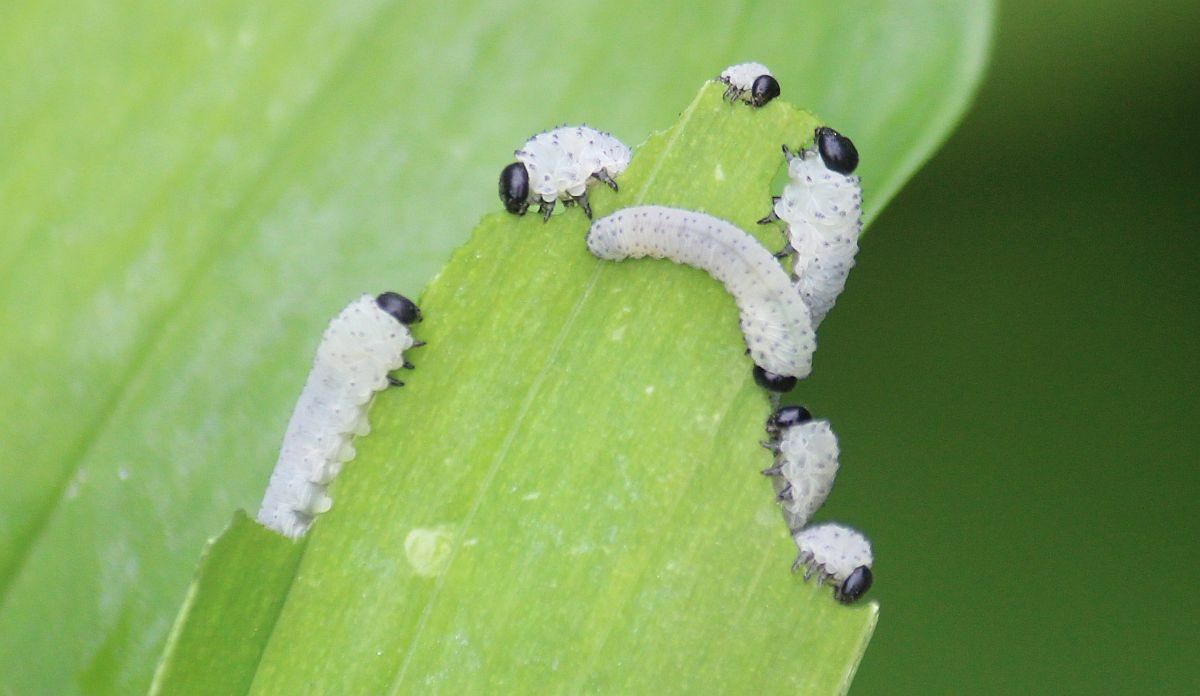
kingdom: Animalia
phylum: Arthropoda
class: Insecta
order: Hymenoptera
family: Tenthredinidae
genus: Phymatocera
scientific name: Phymatocera aterrima
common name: Solomon's-seal sawfly
